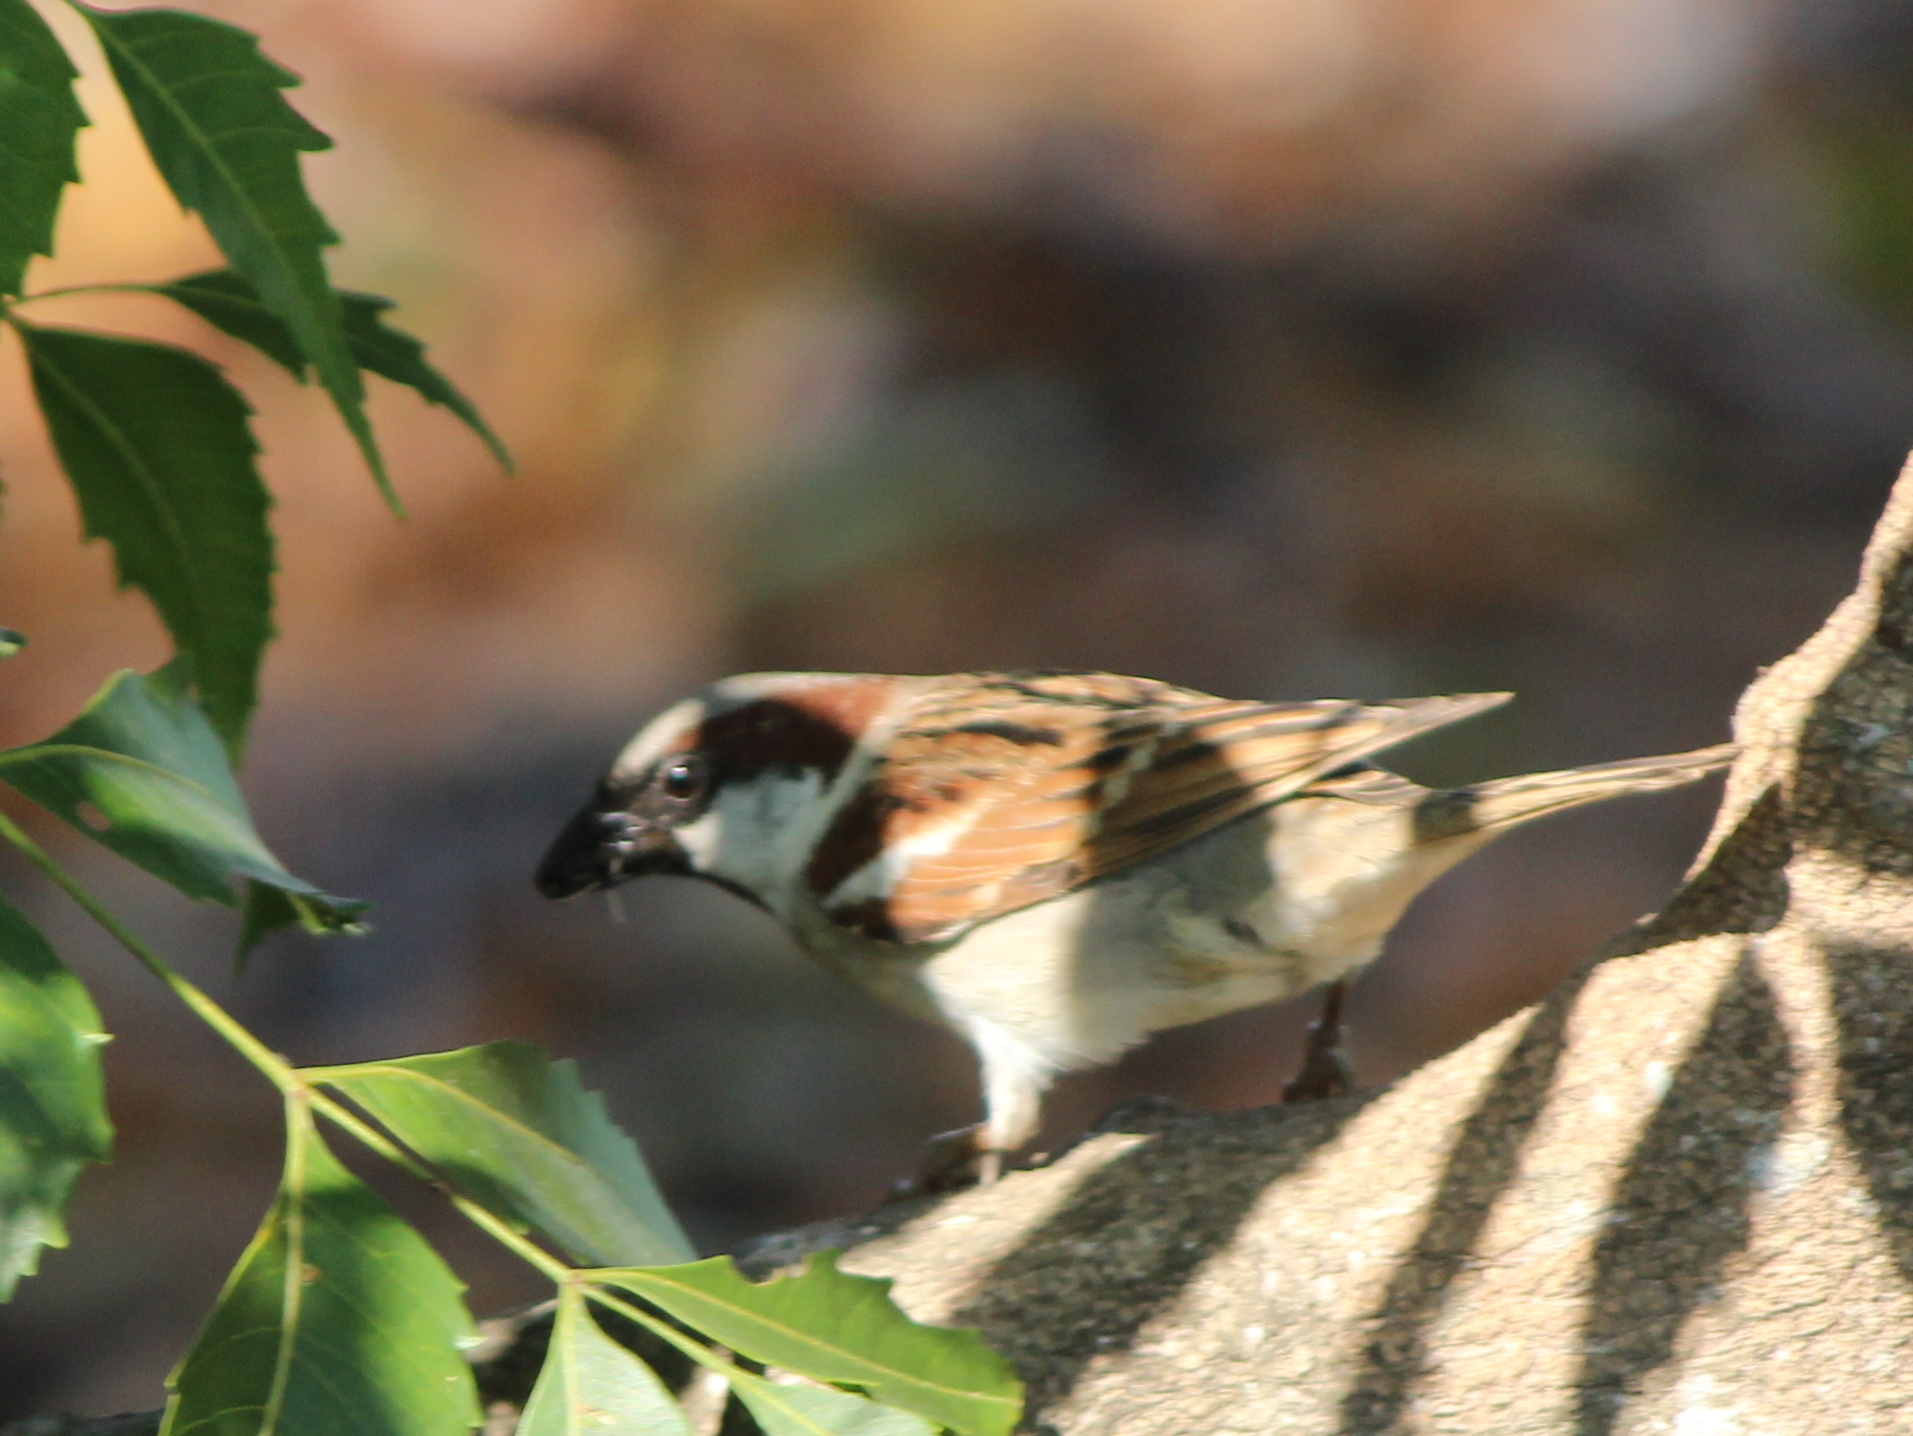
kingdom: Animalia
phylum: Chordata
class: Aves
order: Passeriformes
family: Passeridae
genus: Passer
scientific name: Passer domesticus
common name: House sparrow
